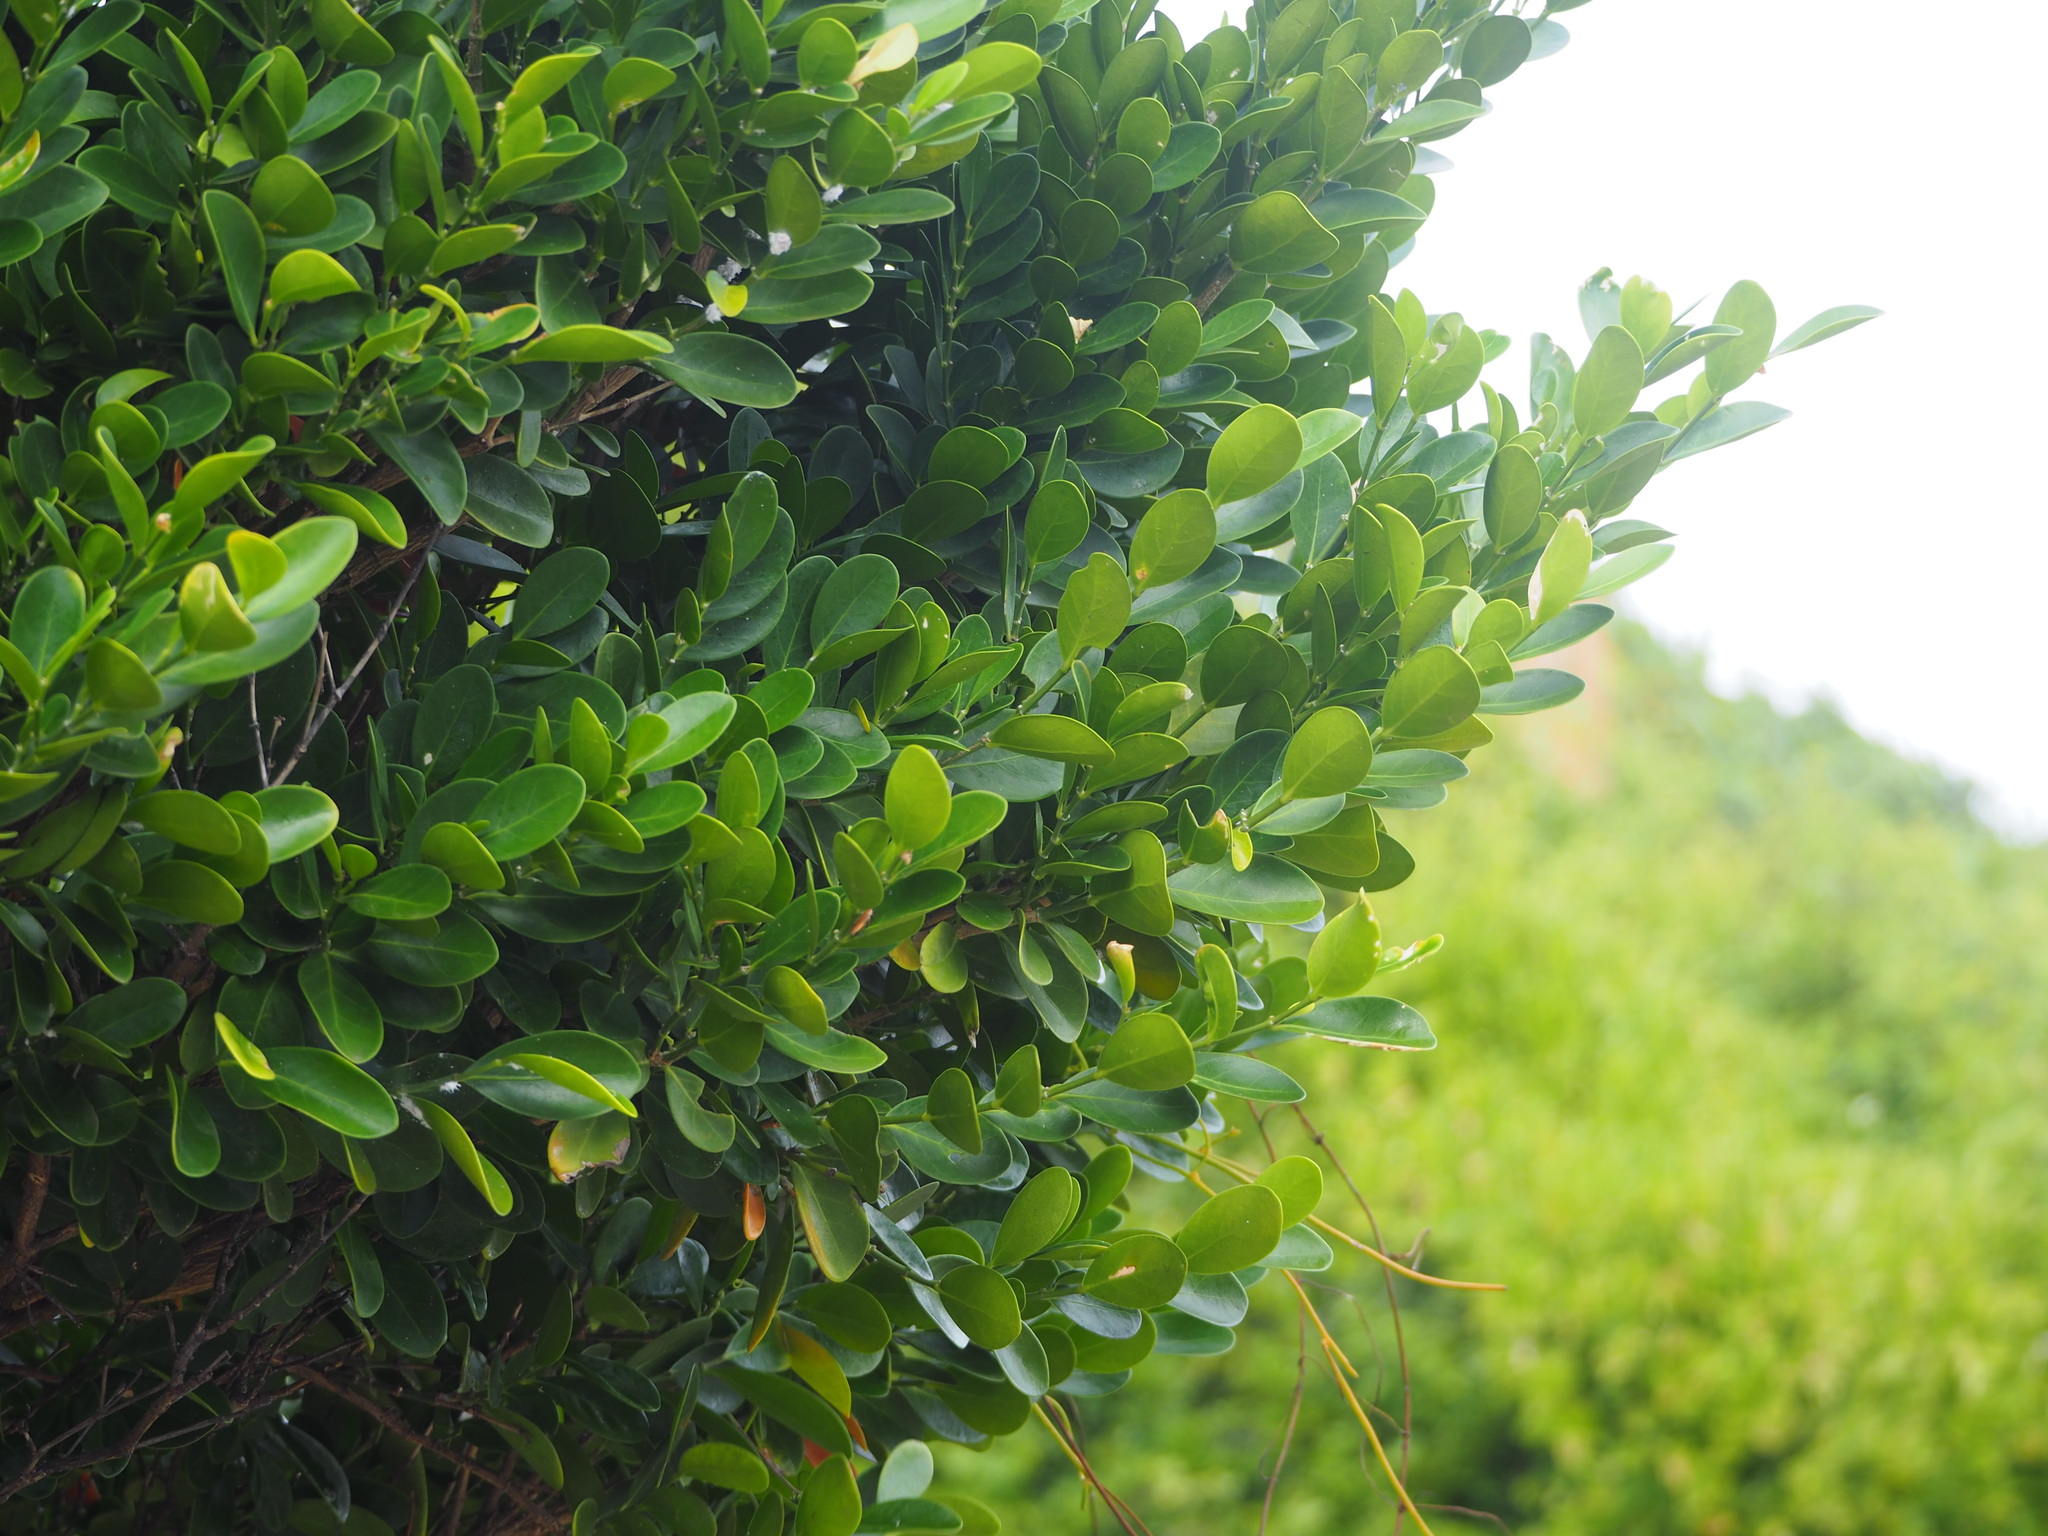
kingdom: Plantae
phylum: Tracheophyta
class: Magnoliopsida
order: Malpighiales
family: Euphorbiaceae
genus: Suregada
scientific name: Suregada aequorea
